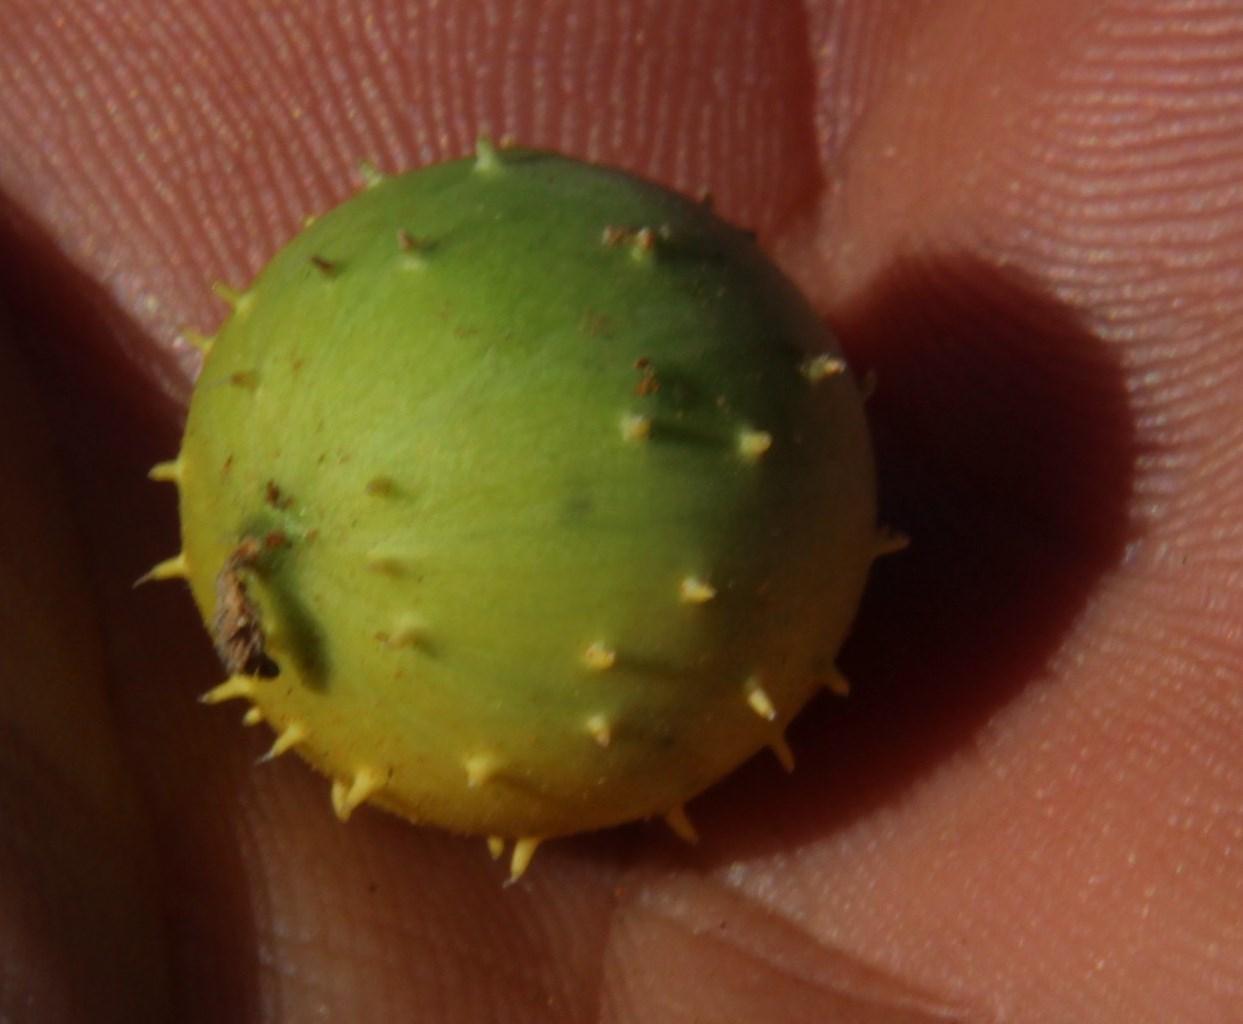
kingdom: Plantae
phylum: Tracheophyta
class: Magnoliopsida
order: Cucurbitales
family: Cucurbitaceae
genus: Cucumis
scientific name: Cucumis myriocarpus
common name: Gooseberry cucumber
